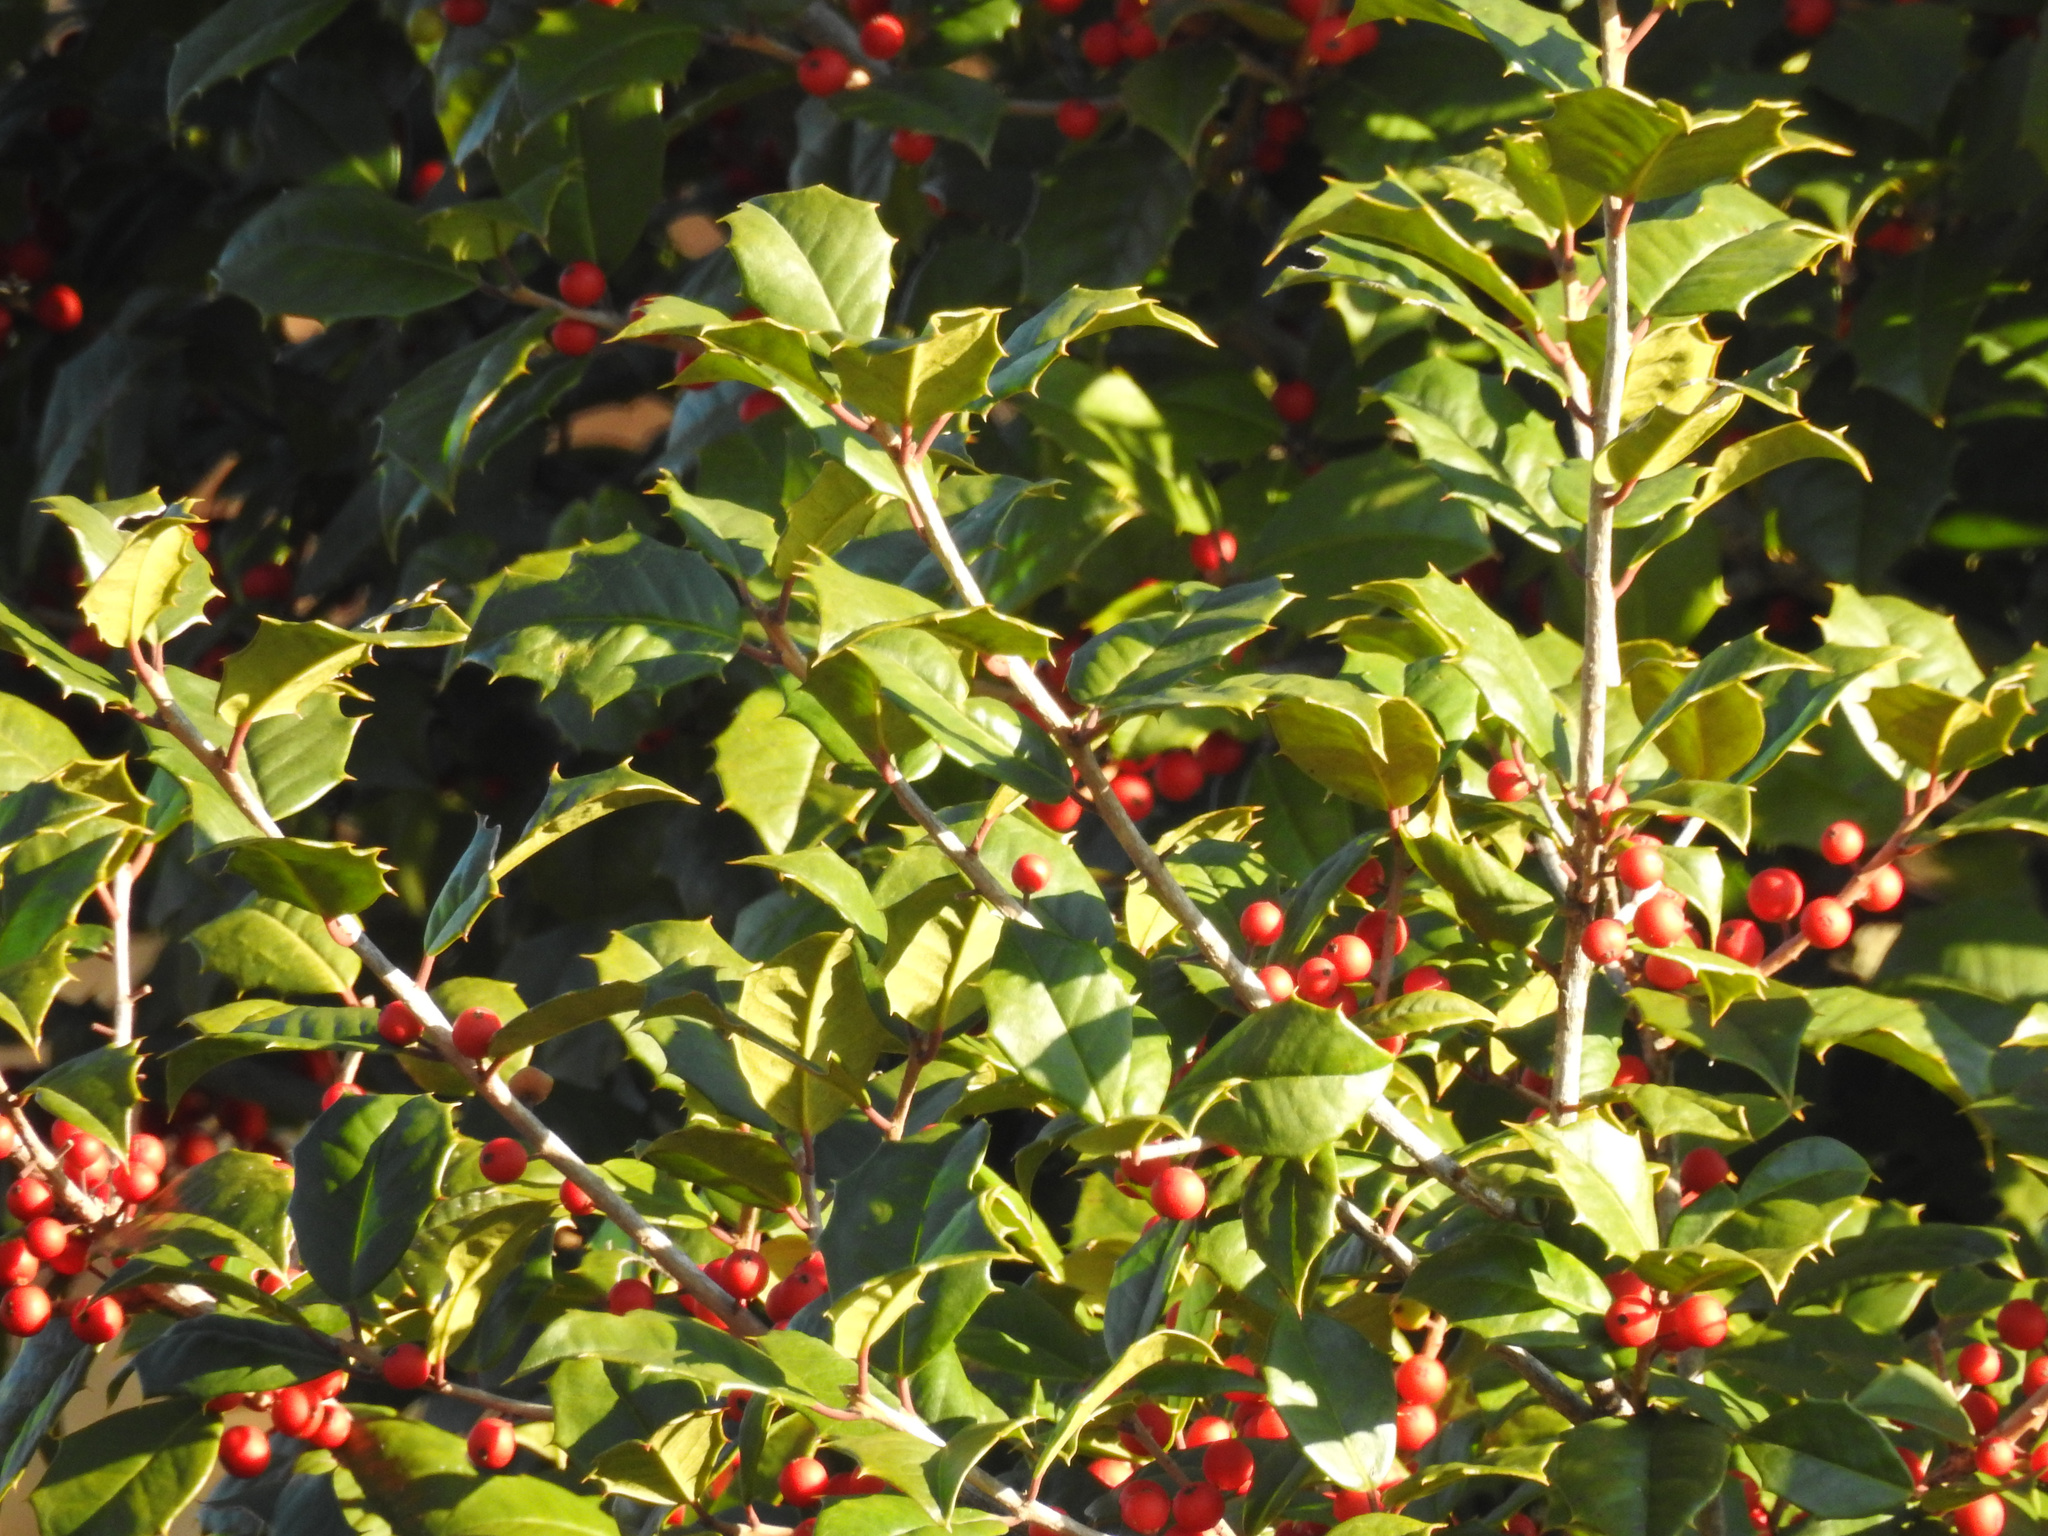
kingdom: Plantae
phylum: Tracheophyta
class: Magnoliopsida
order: Aquifoliales
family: Aquifoliaceae
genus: Ilex
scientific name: Ilex opaca
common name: American holly
